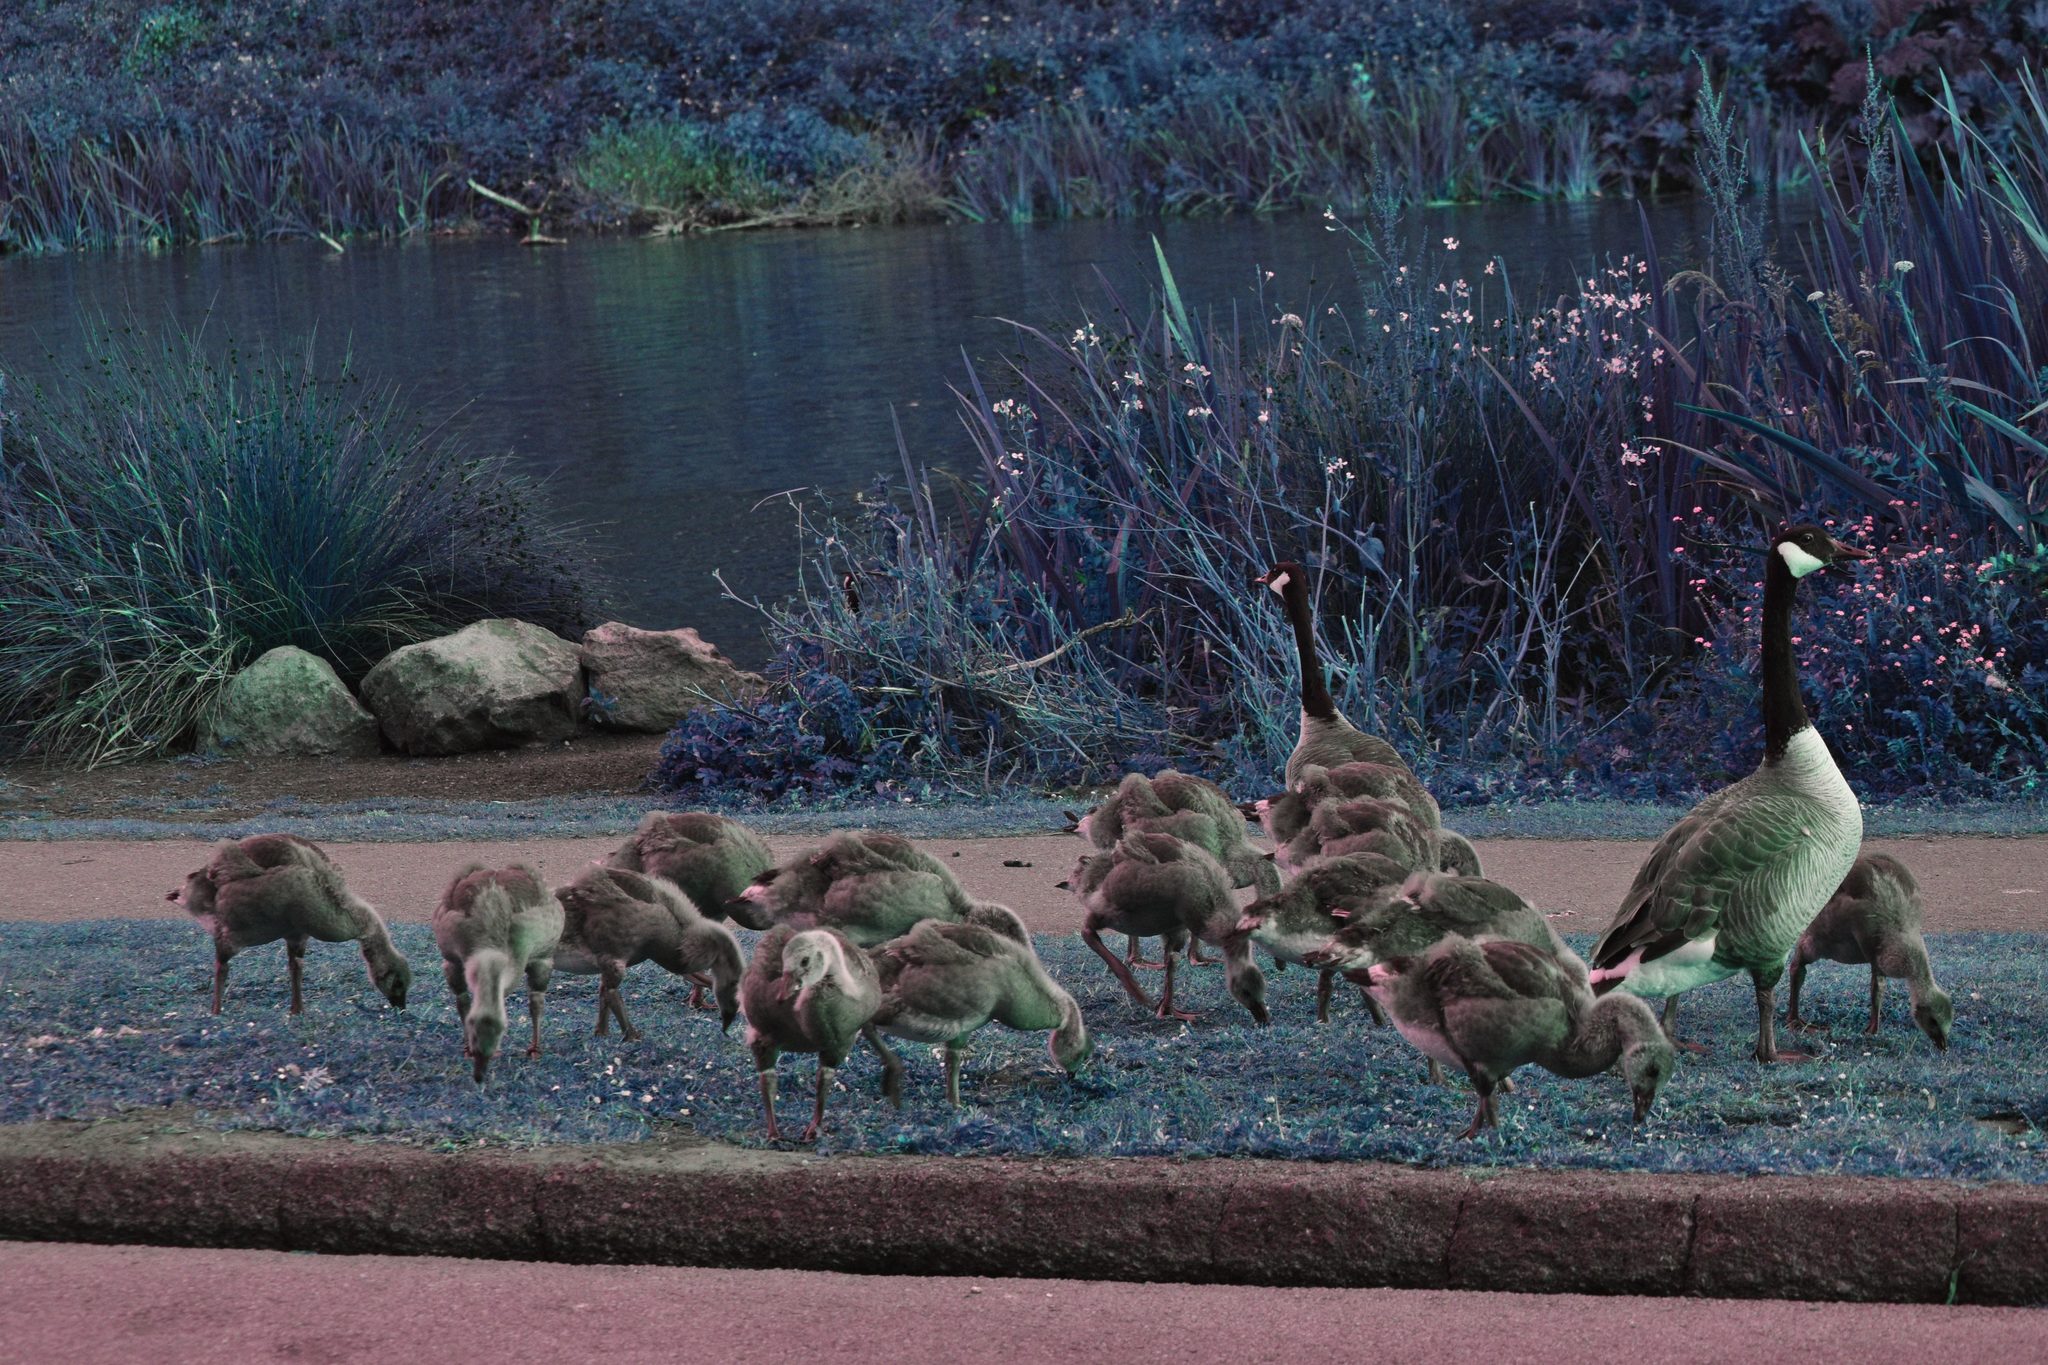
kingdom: Animalia
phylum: Chordata
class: Aves
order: Anseriformes
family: Anatidae
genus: Branta
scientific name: Branta canadensis
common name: Canada goose
